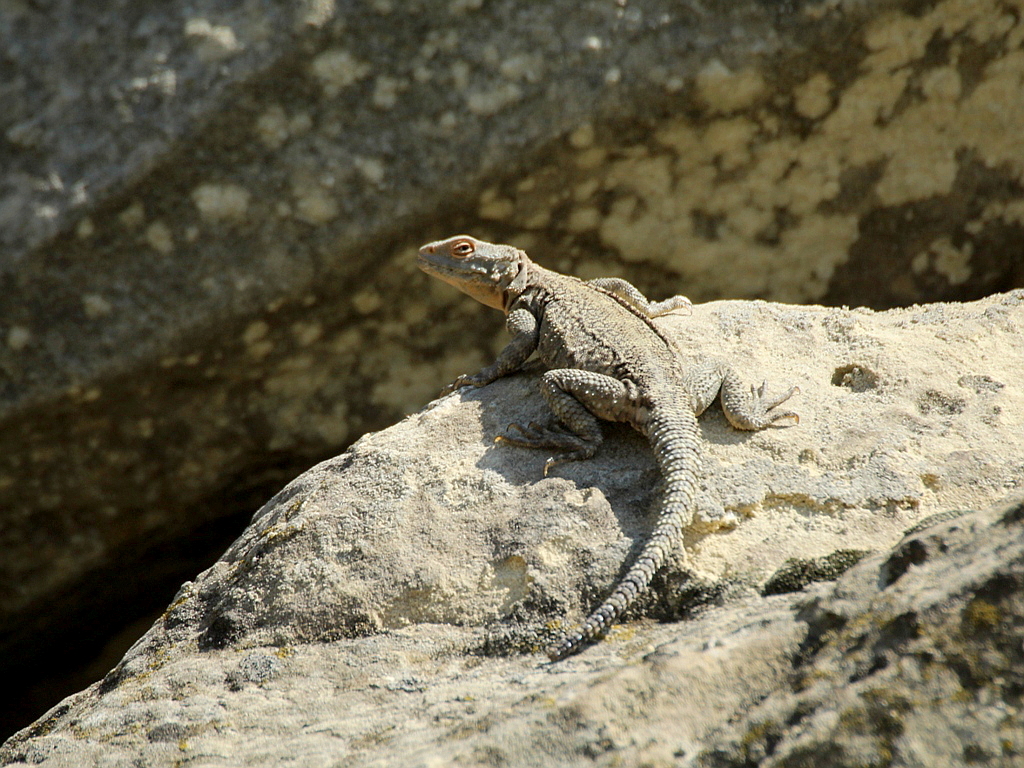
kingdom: Animalia
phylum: Chordata
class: Squamata
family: Agamidae
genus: Paralaudakia
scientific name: Paralaudakia caucasia
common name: Caucasian agama
